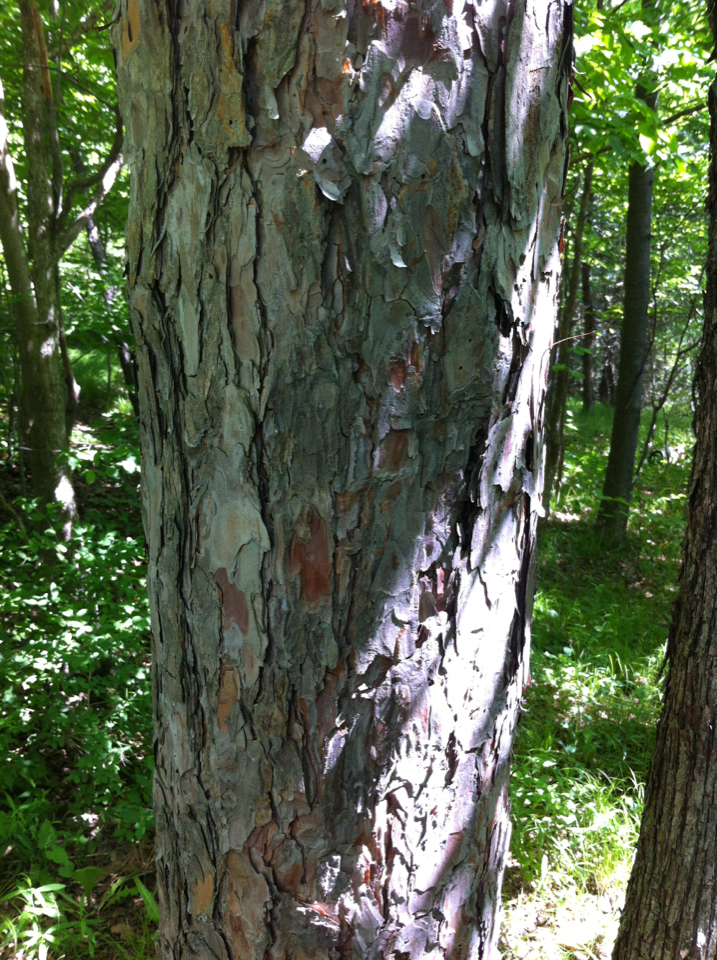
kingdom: Plantae
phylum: Tracheophyta
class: Pinopsida
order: Pinales
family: Pinaceae
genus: Pinus
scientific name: Pinus resinosa
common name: Norway pine
